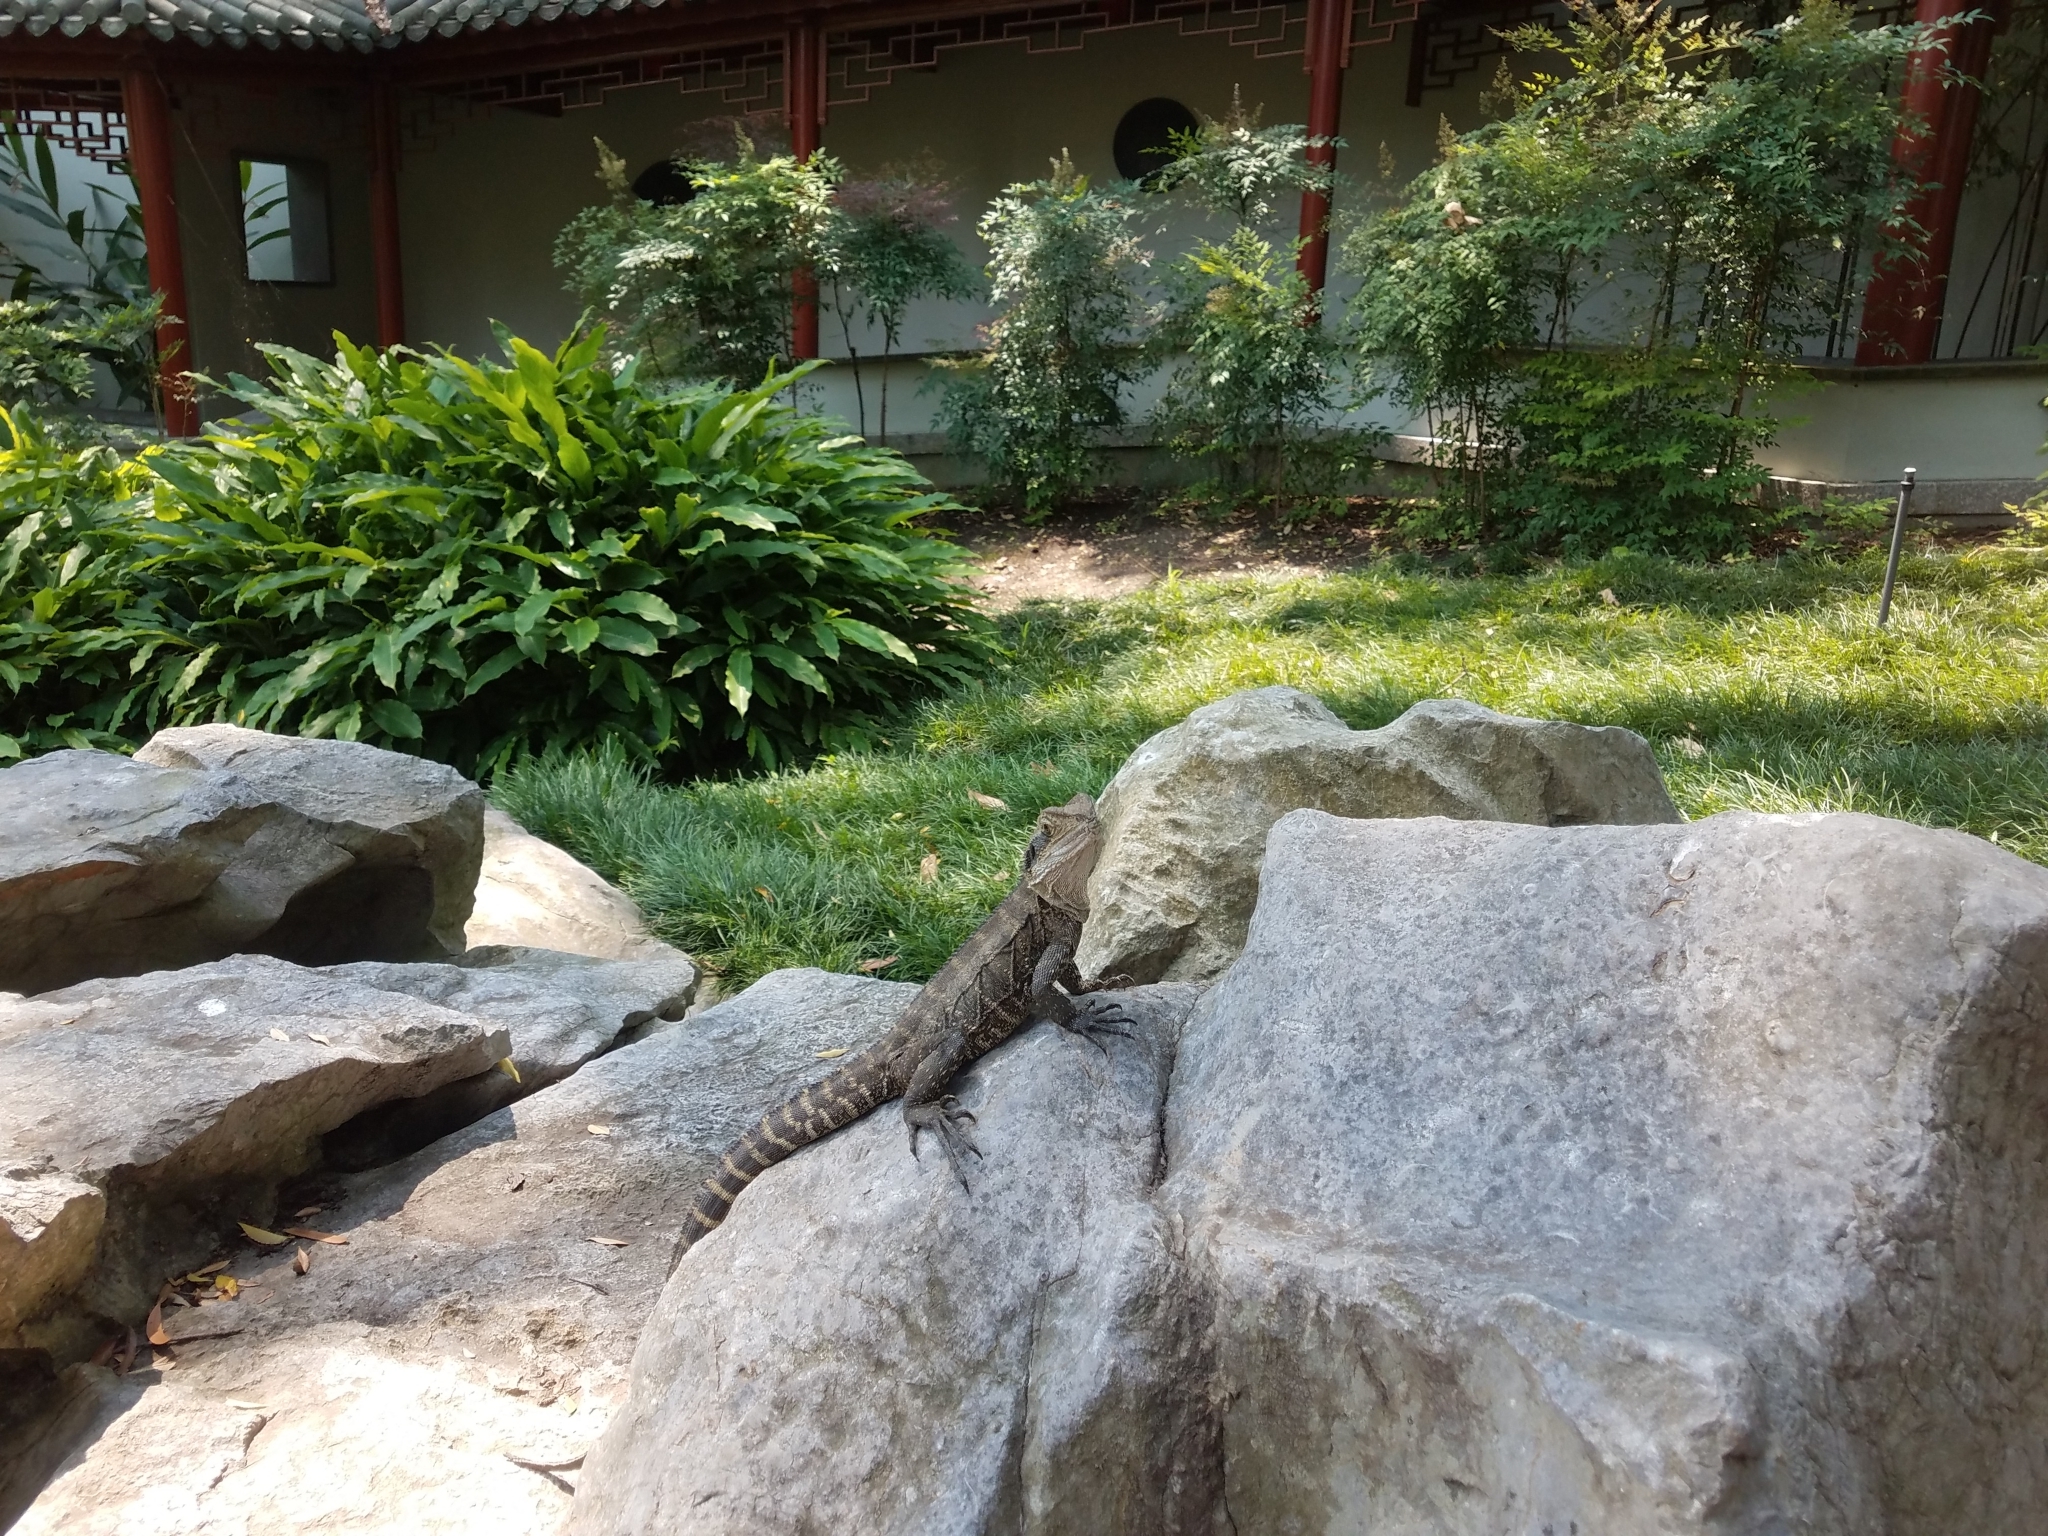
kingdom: Animalia
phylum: Chordata
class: Squamata
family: Agamidae
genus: Intellagama
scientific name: Intellagama lesueurii
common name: Eastern water dragon
